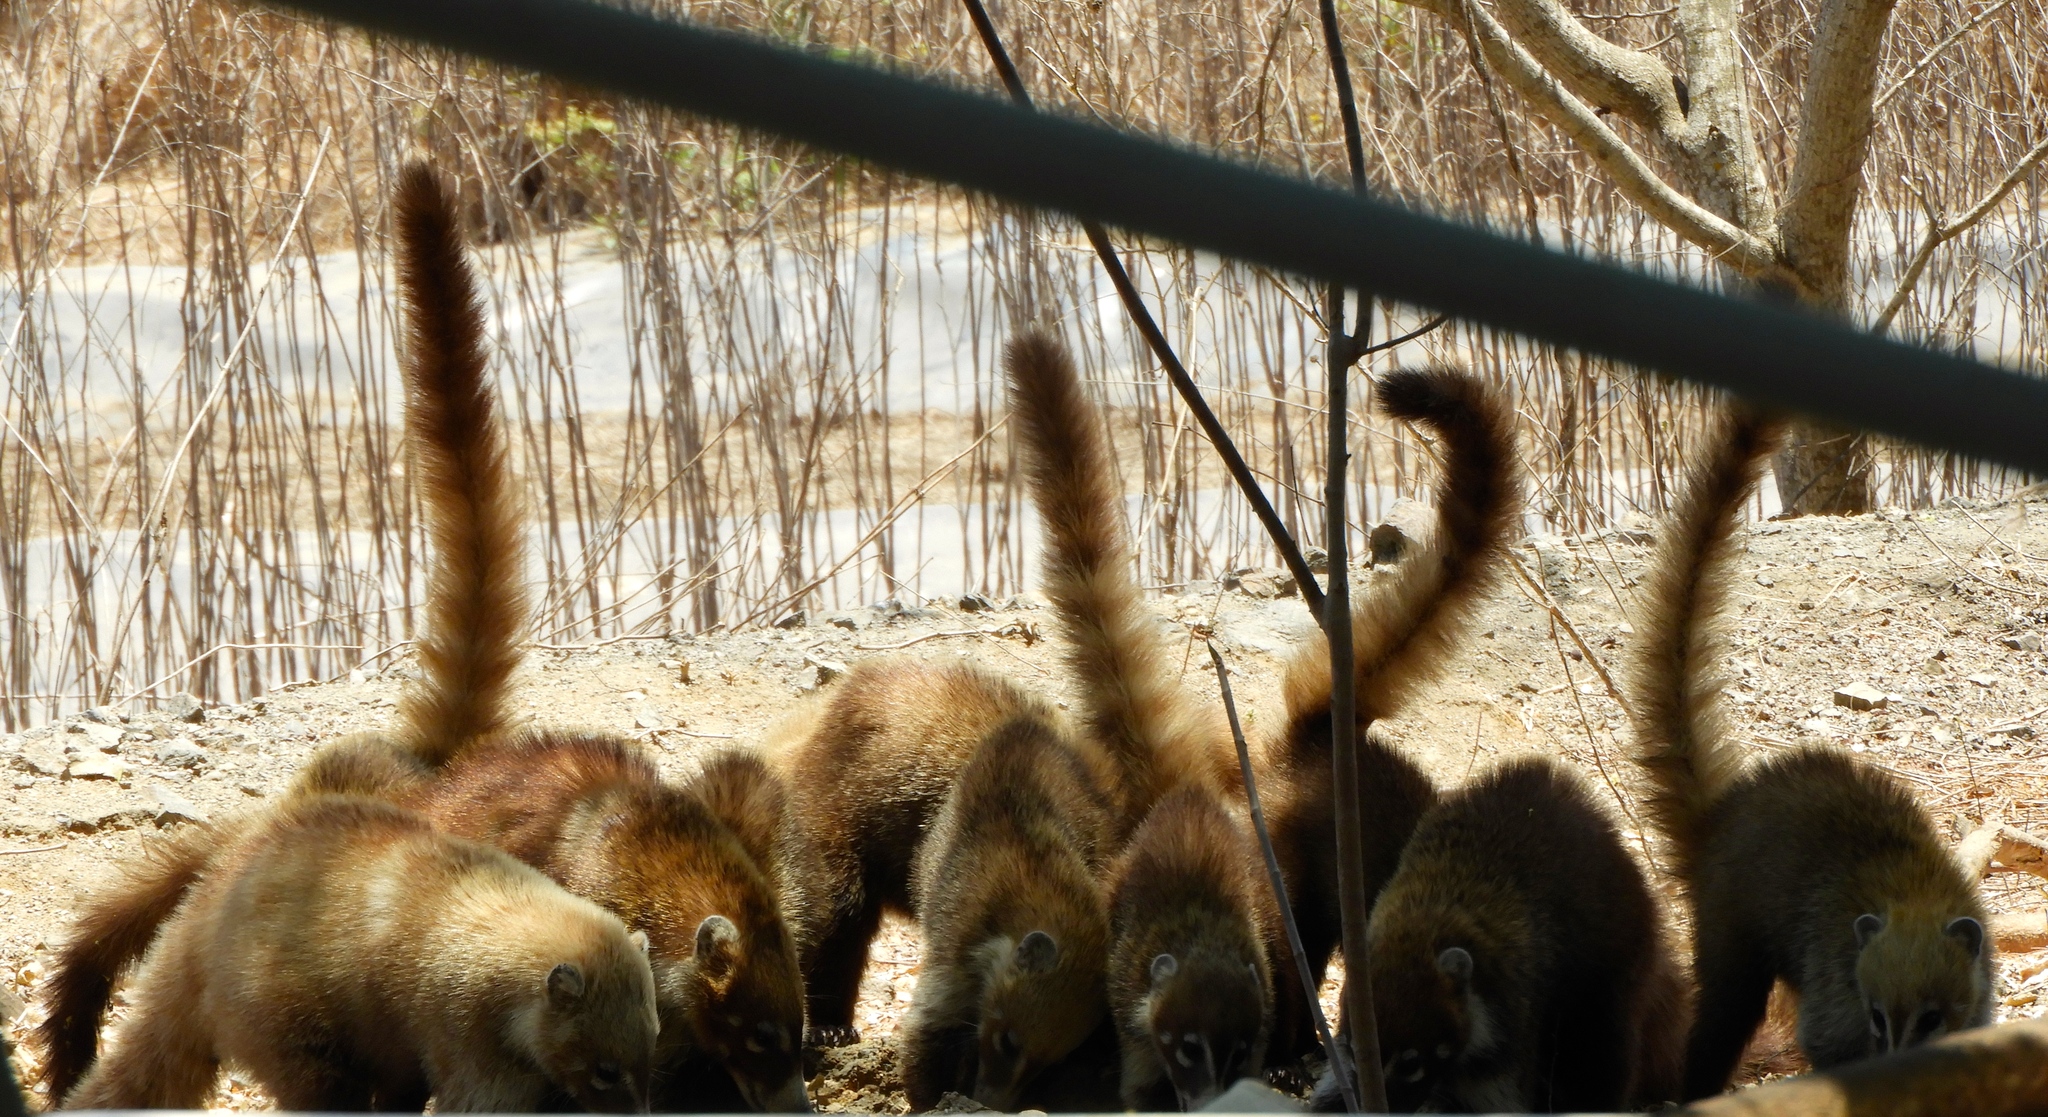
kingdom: Animalia
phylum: Chordata
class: Mammalia
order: Carnivora
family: Procyonidae
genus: Nasua
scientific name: Nasua narica
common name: White-nosed coati
